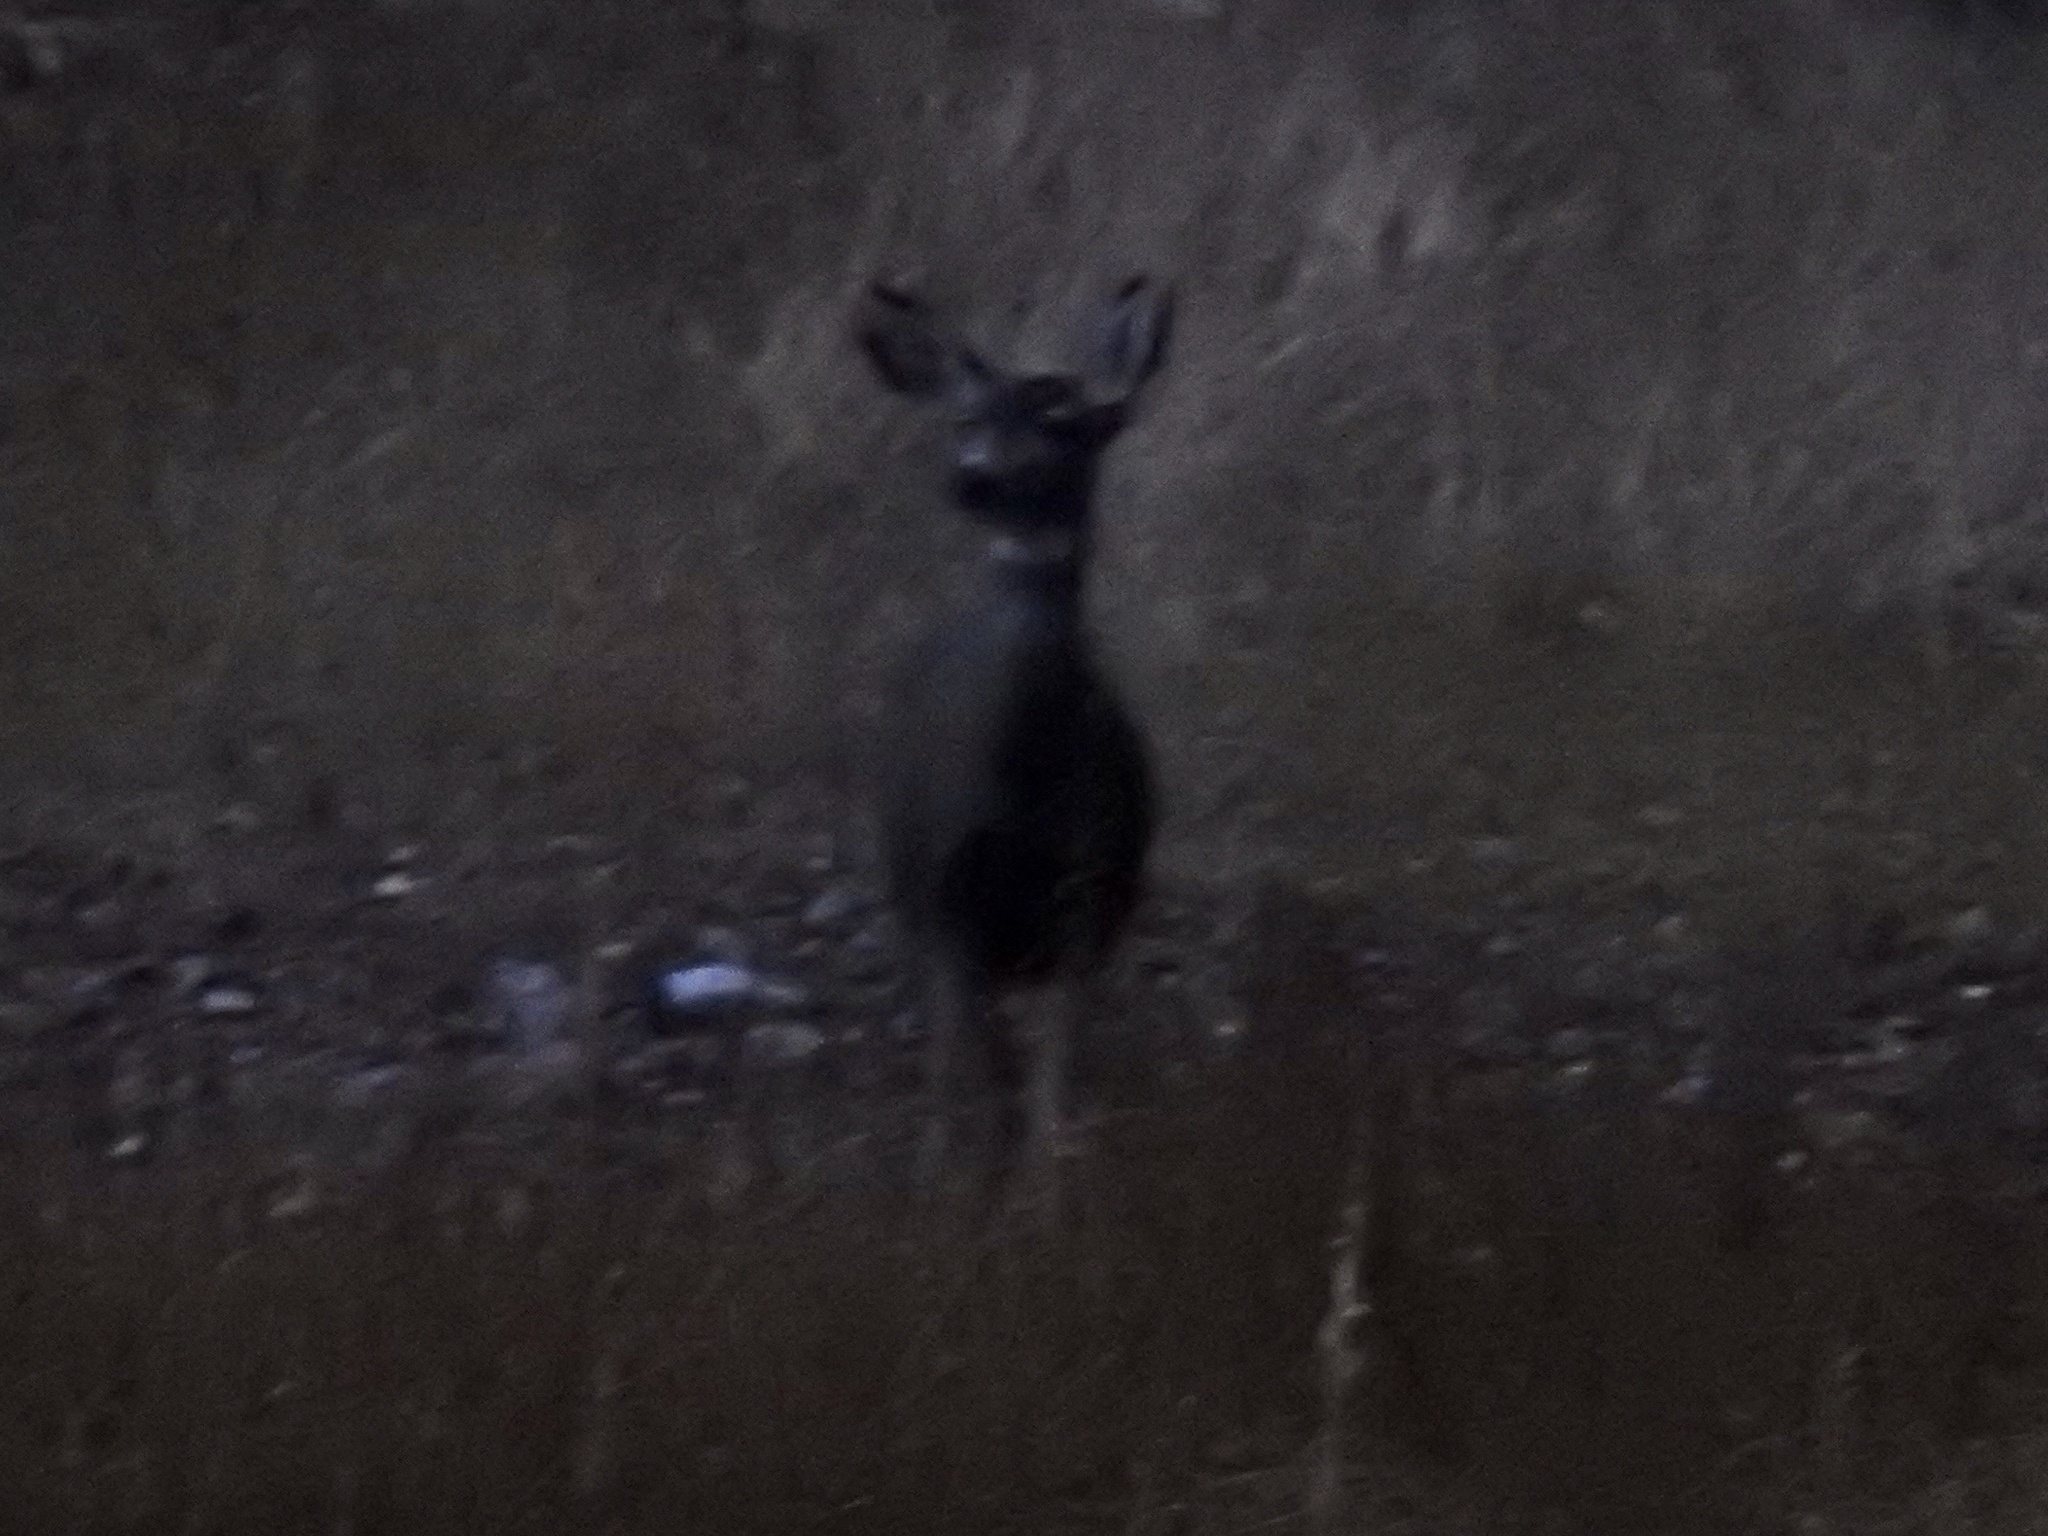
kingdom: Animalia
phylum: Chordata
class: Mammalia
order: Artiodactyla
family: Cervidae
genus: Odocoileus
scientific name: Odocoileus hemionus
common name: Mule deer
